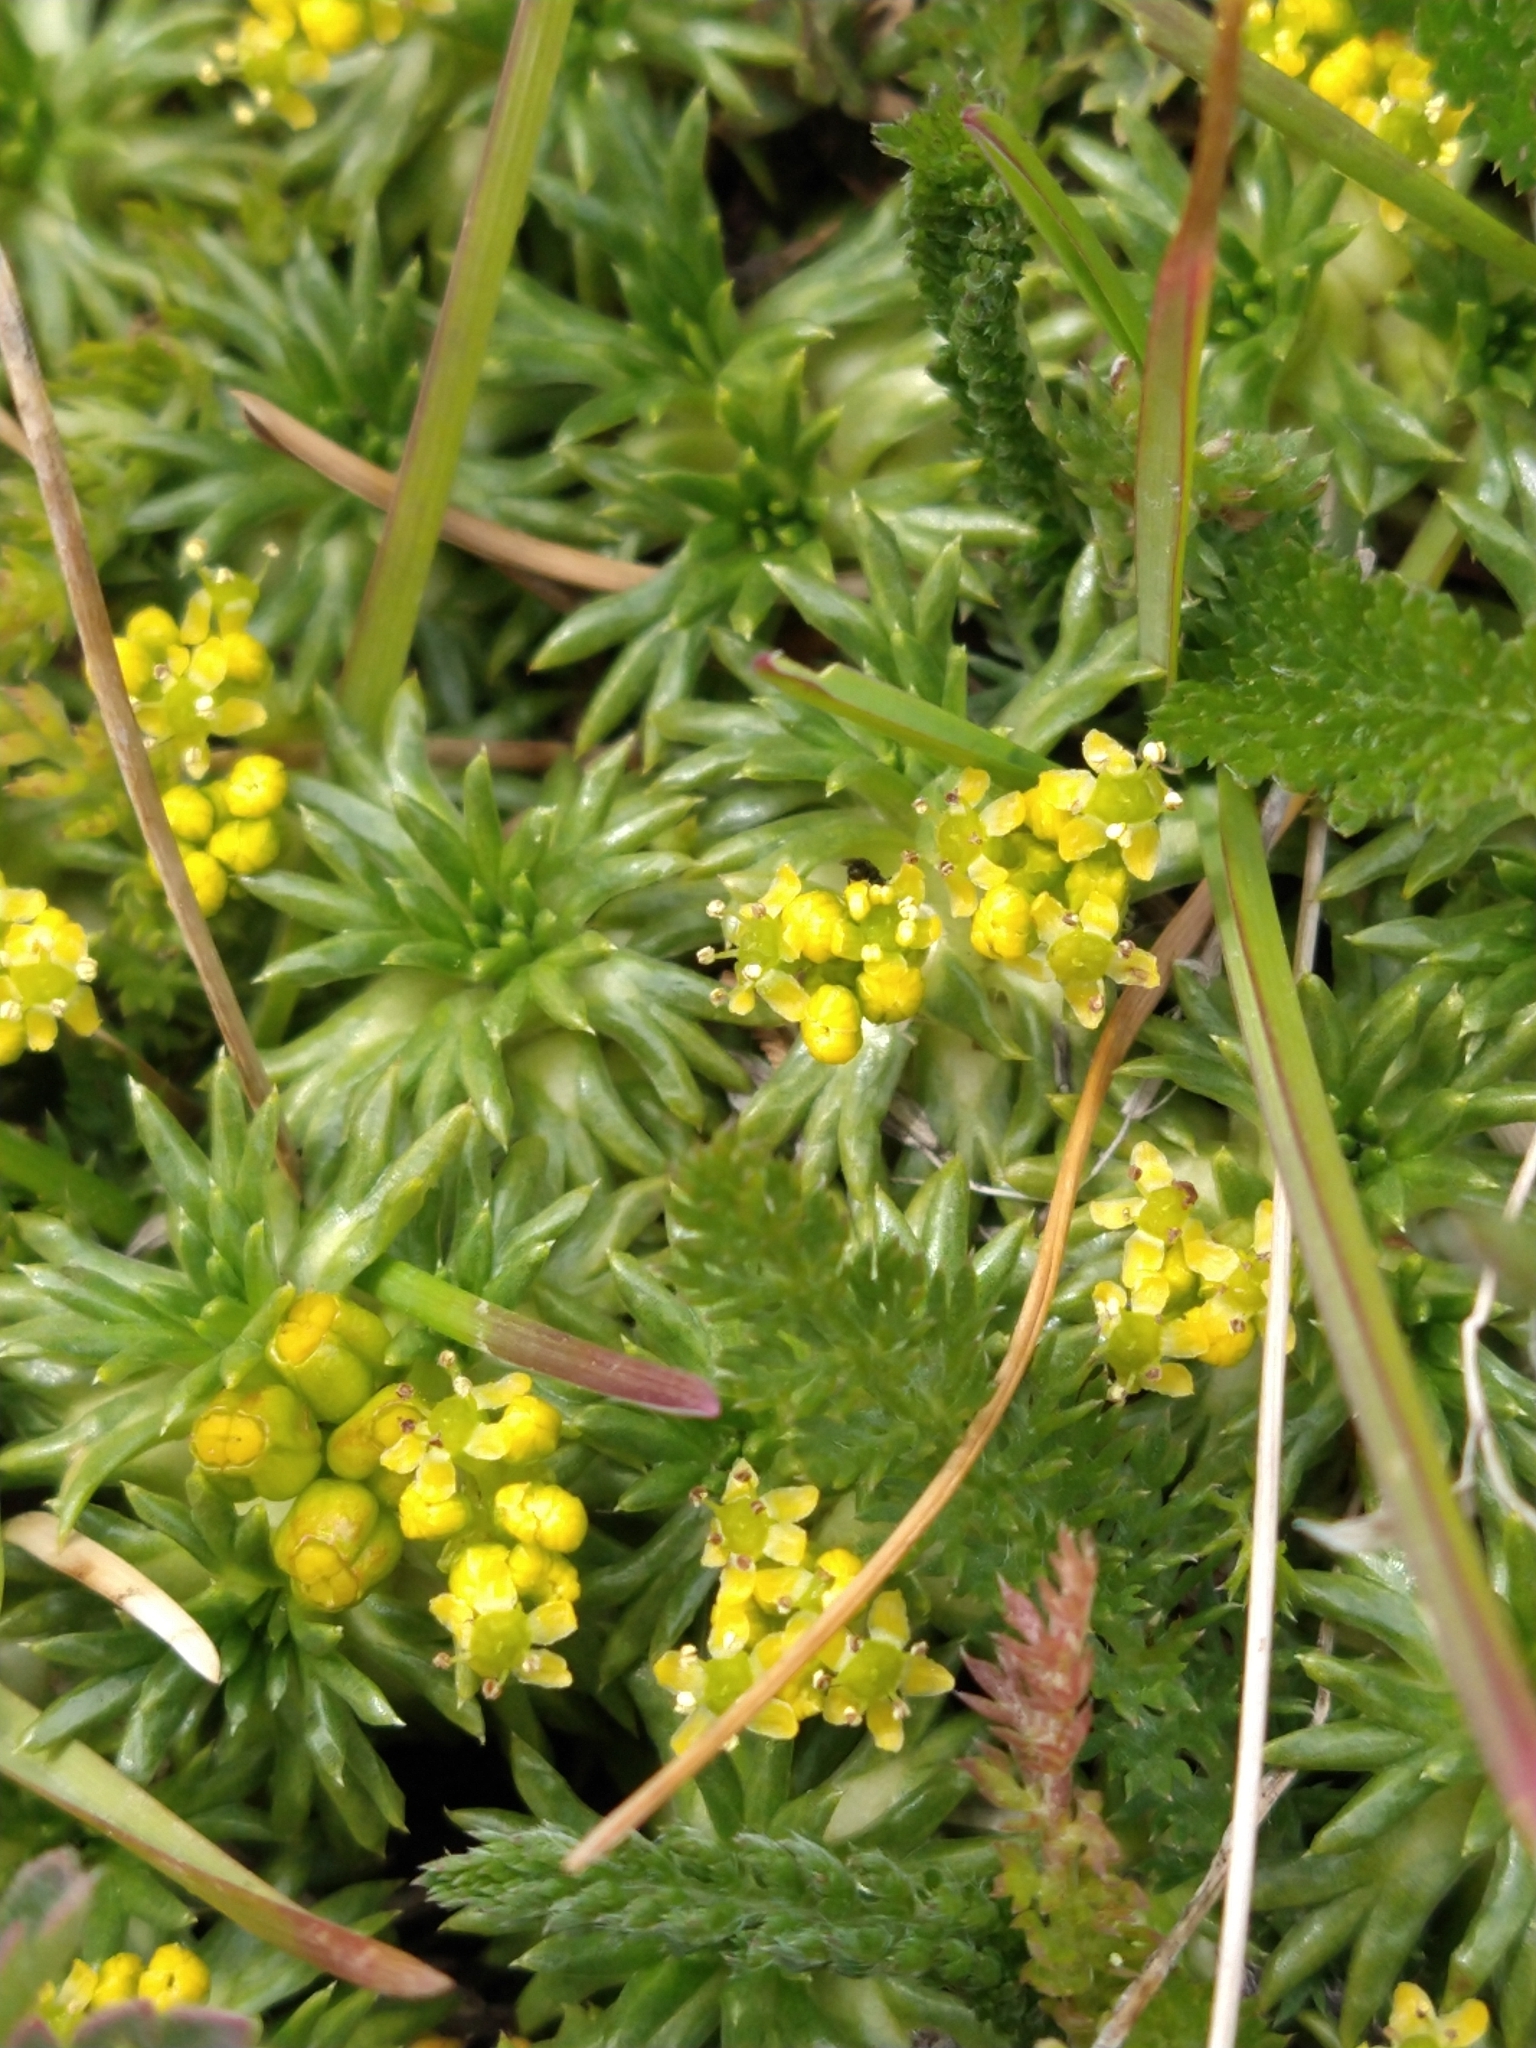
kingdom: Plantae
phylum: Tracheophyta
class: Magnoliopsida
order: Apiales
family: Apiaceae
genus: Azorella
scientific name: Azorella trifurcata
